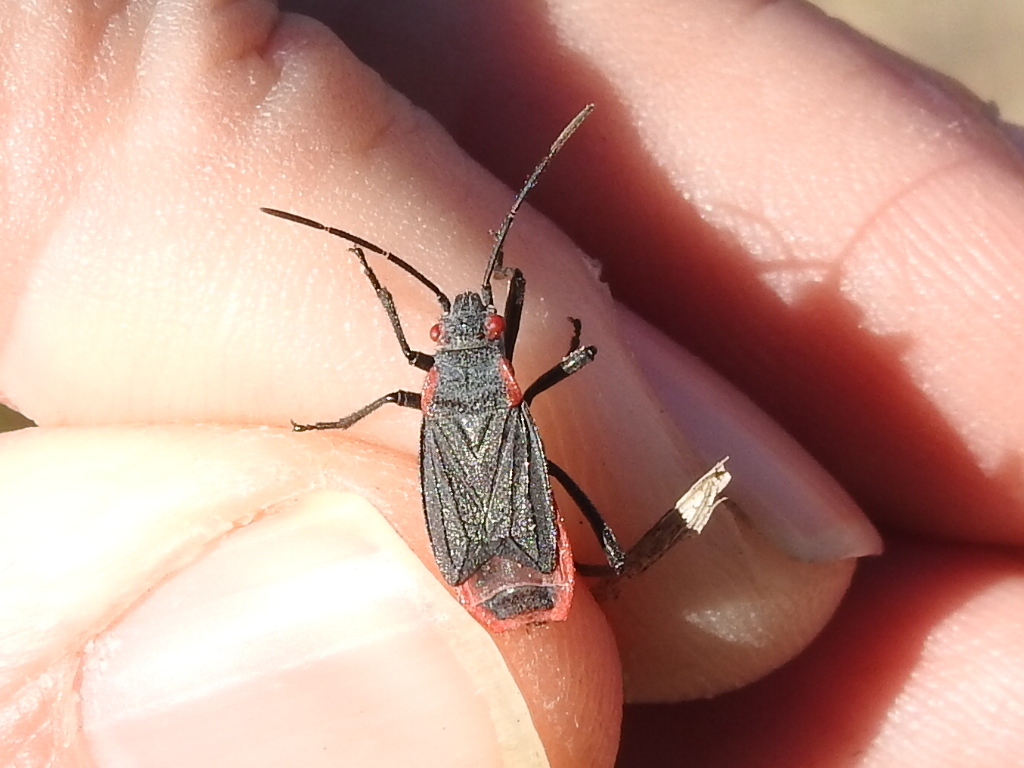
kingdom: Animalia
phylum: Arthropoda
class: Insecta
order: Hemiptera
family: Rhopalidae
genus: Jadera
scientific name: Jadera haematoloma
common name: Red-shouldered bug
